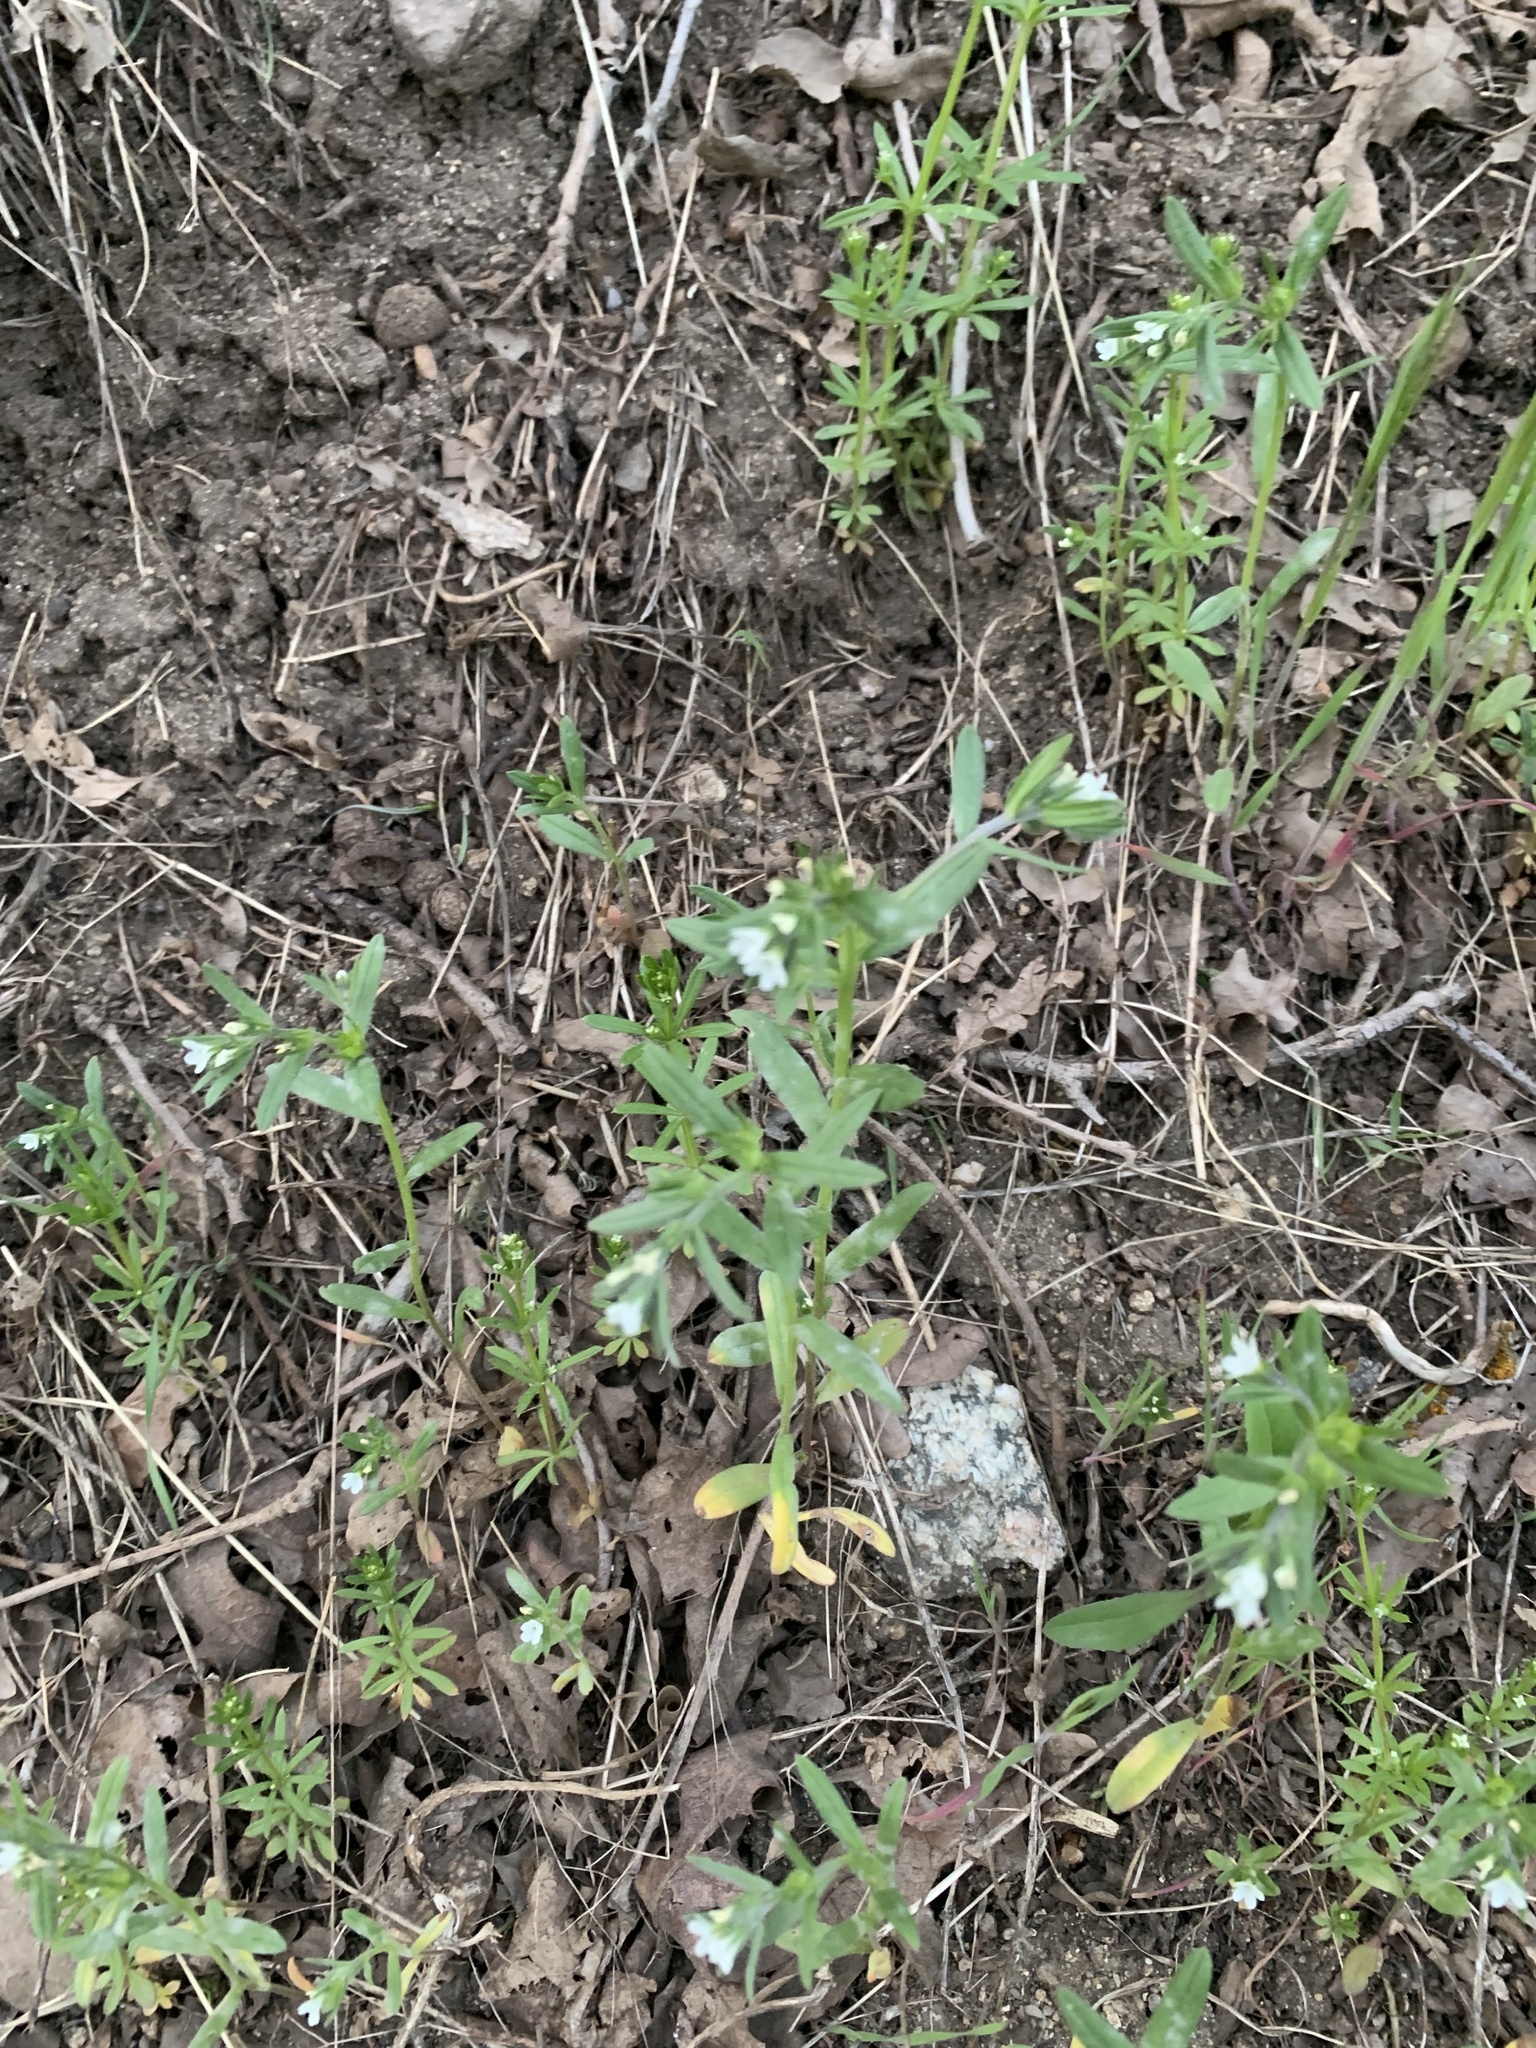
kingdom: Plantae
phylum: Tracheophyta
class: Magnoliopsida
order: Boraginales
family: Boraginaceae
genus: Buglossoides
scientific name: Buglossoides arvensis
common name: Corn gromwell
